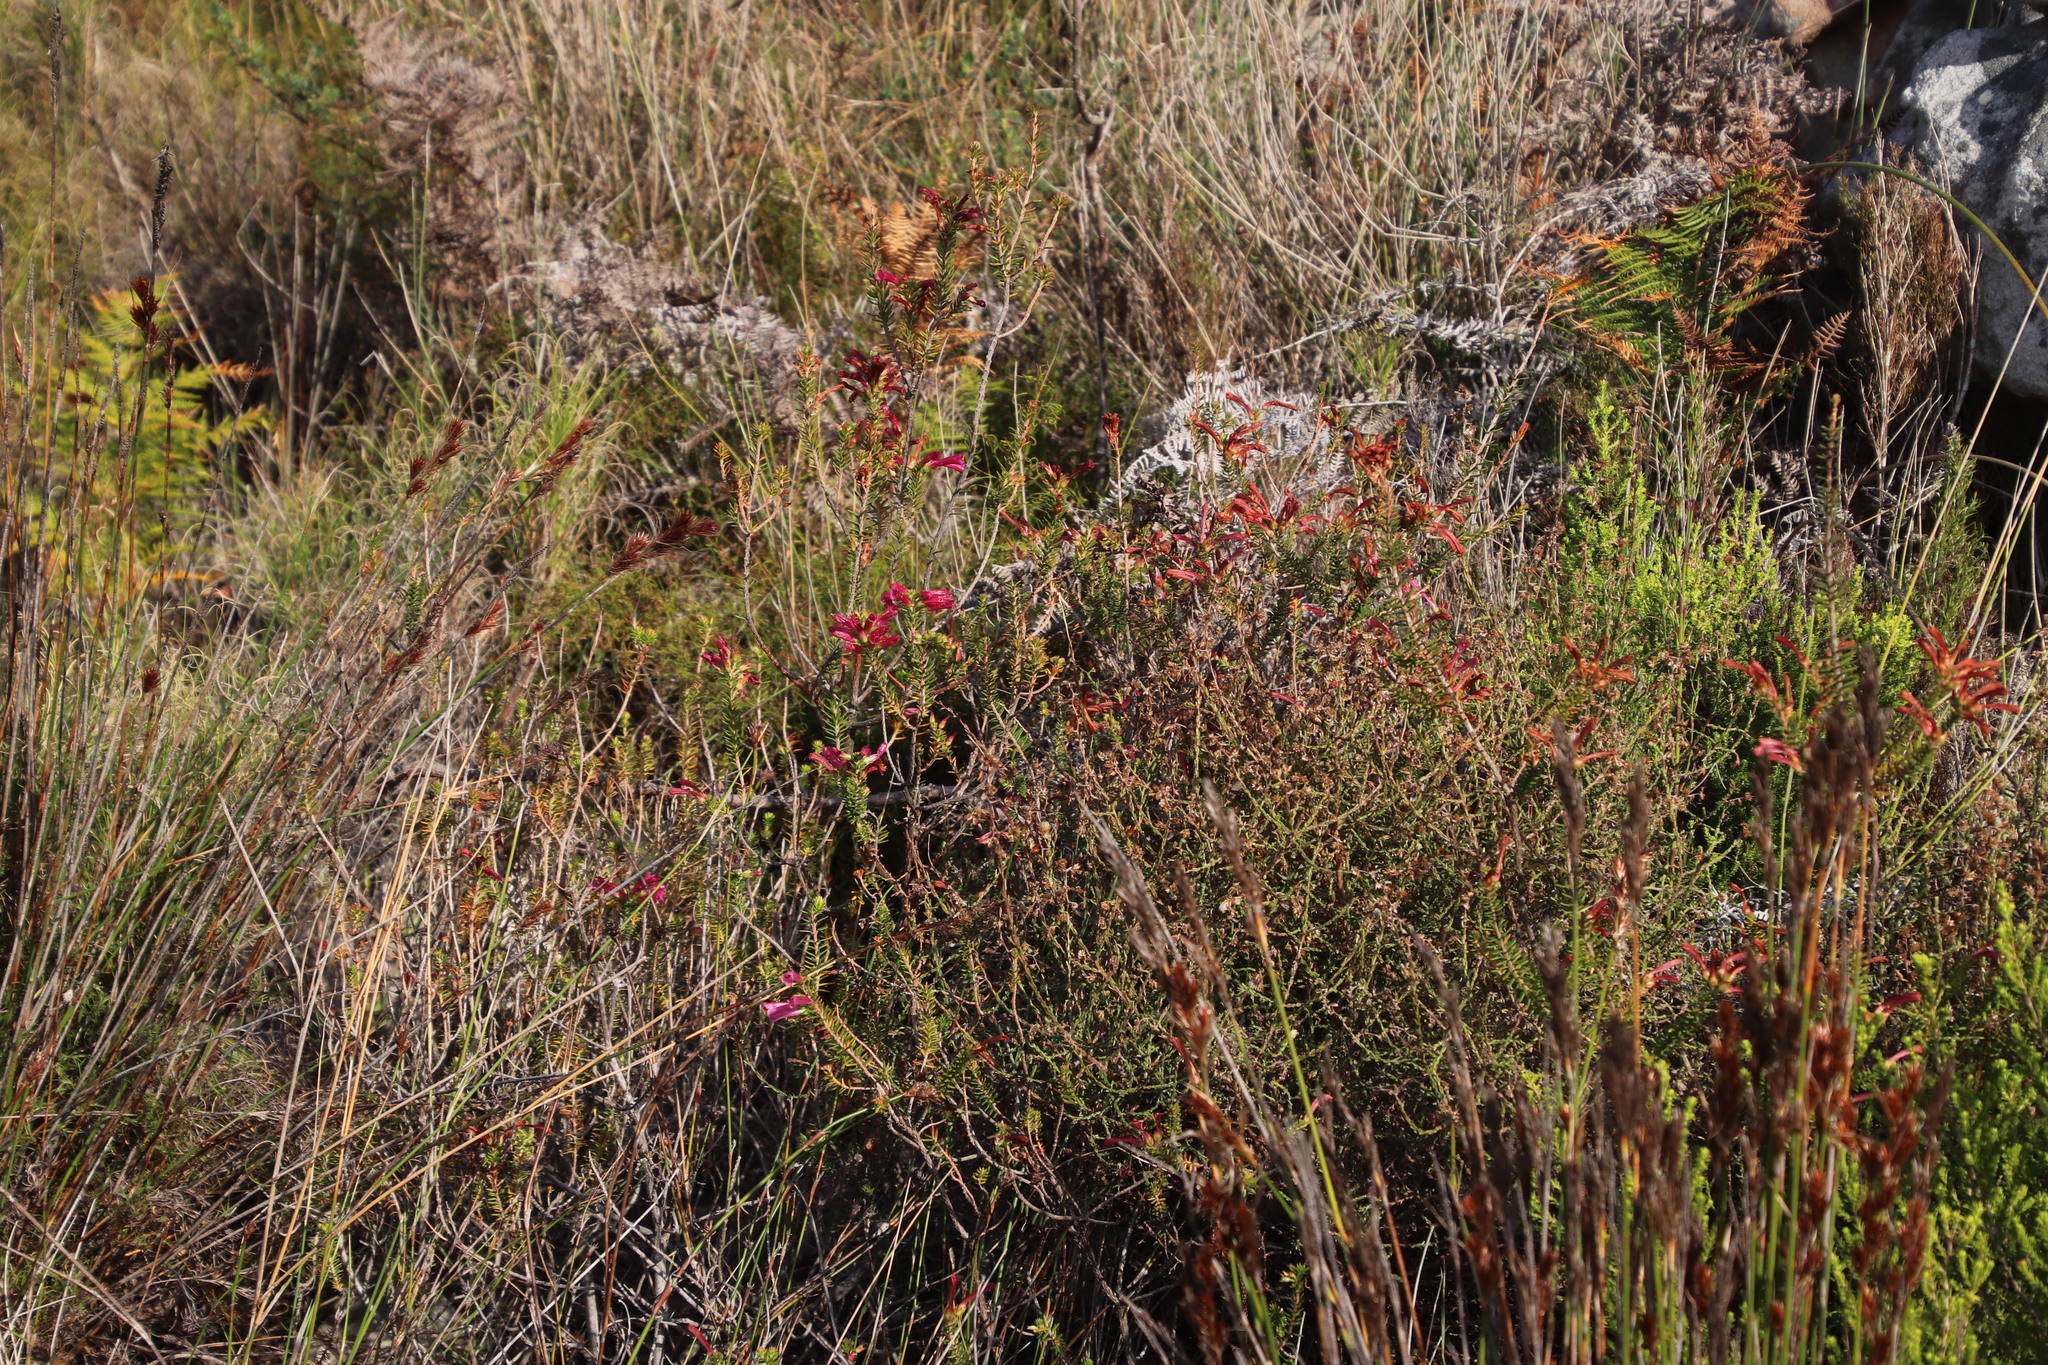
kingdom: Plantae
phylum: Tracheophyta
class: Magnoliopsida
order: Ericales
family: Ericaceae
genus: Erica
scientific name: Erica abietina
